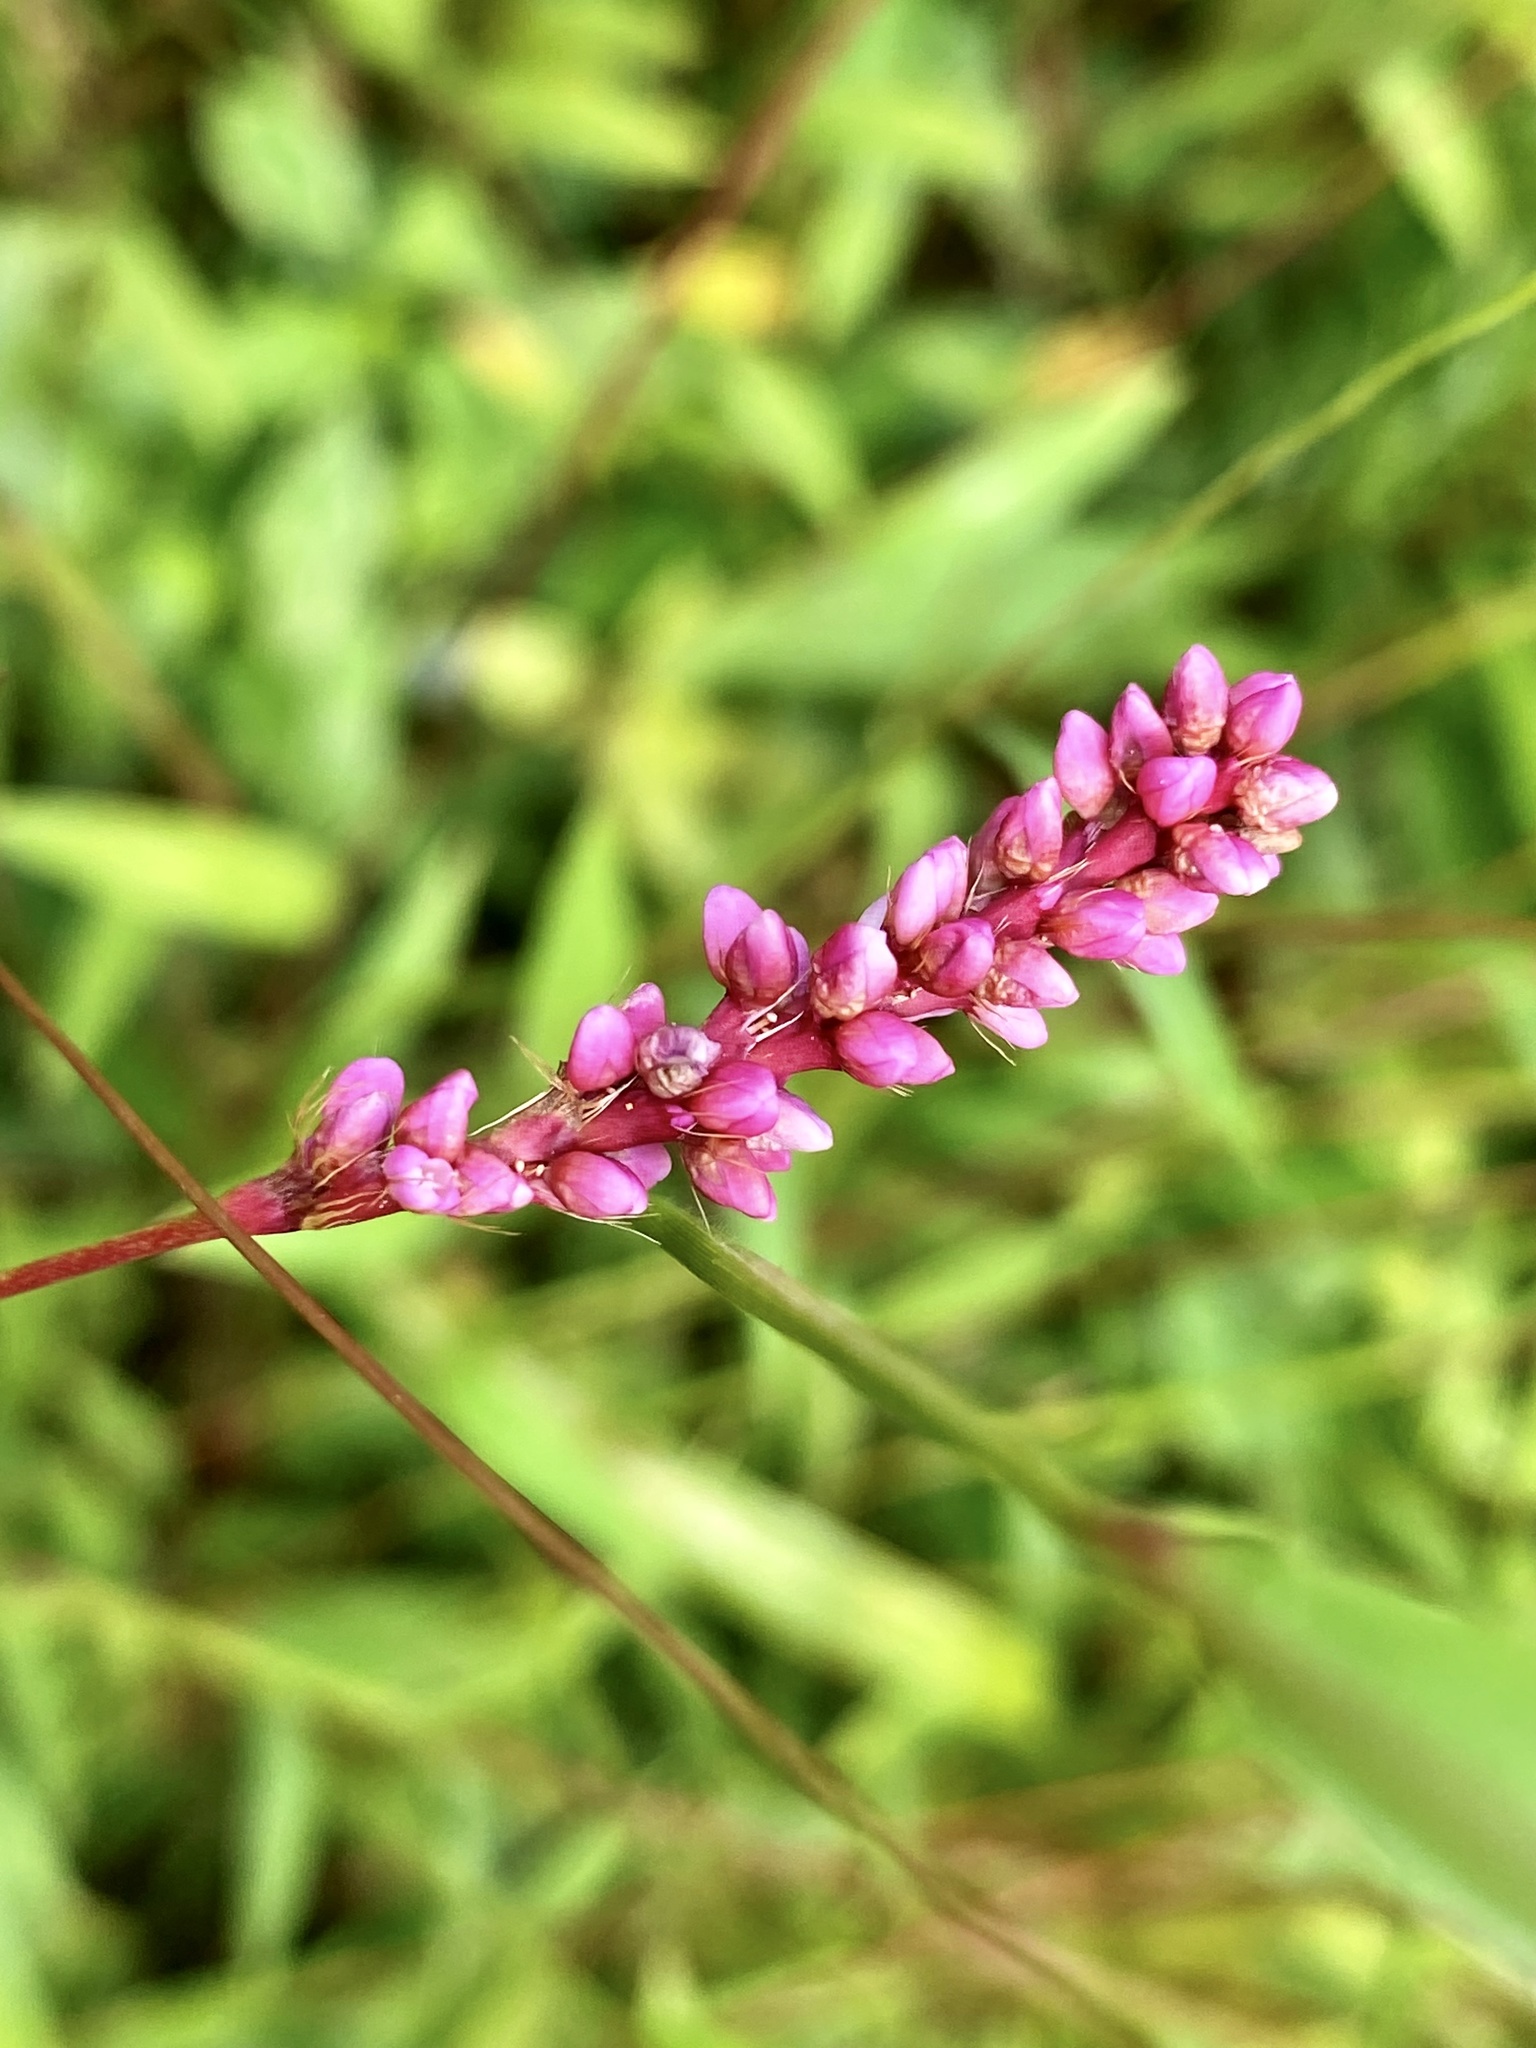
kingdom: Plantae
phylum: Tracheophyta
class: Magnoliopsida
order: Caryophyllales
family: Polygonaceae
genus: Persicaria
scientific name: Persicaria longiseta
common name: Bristly lady's-thumb
